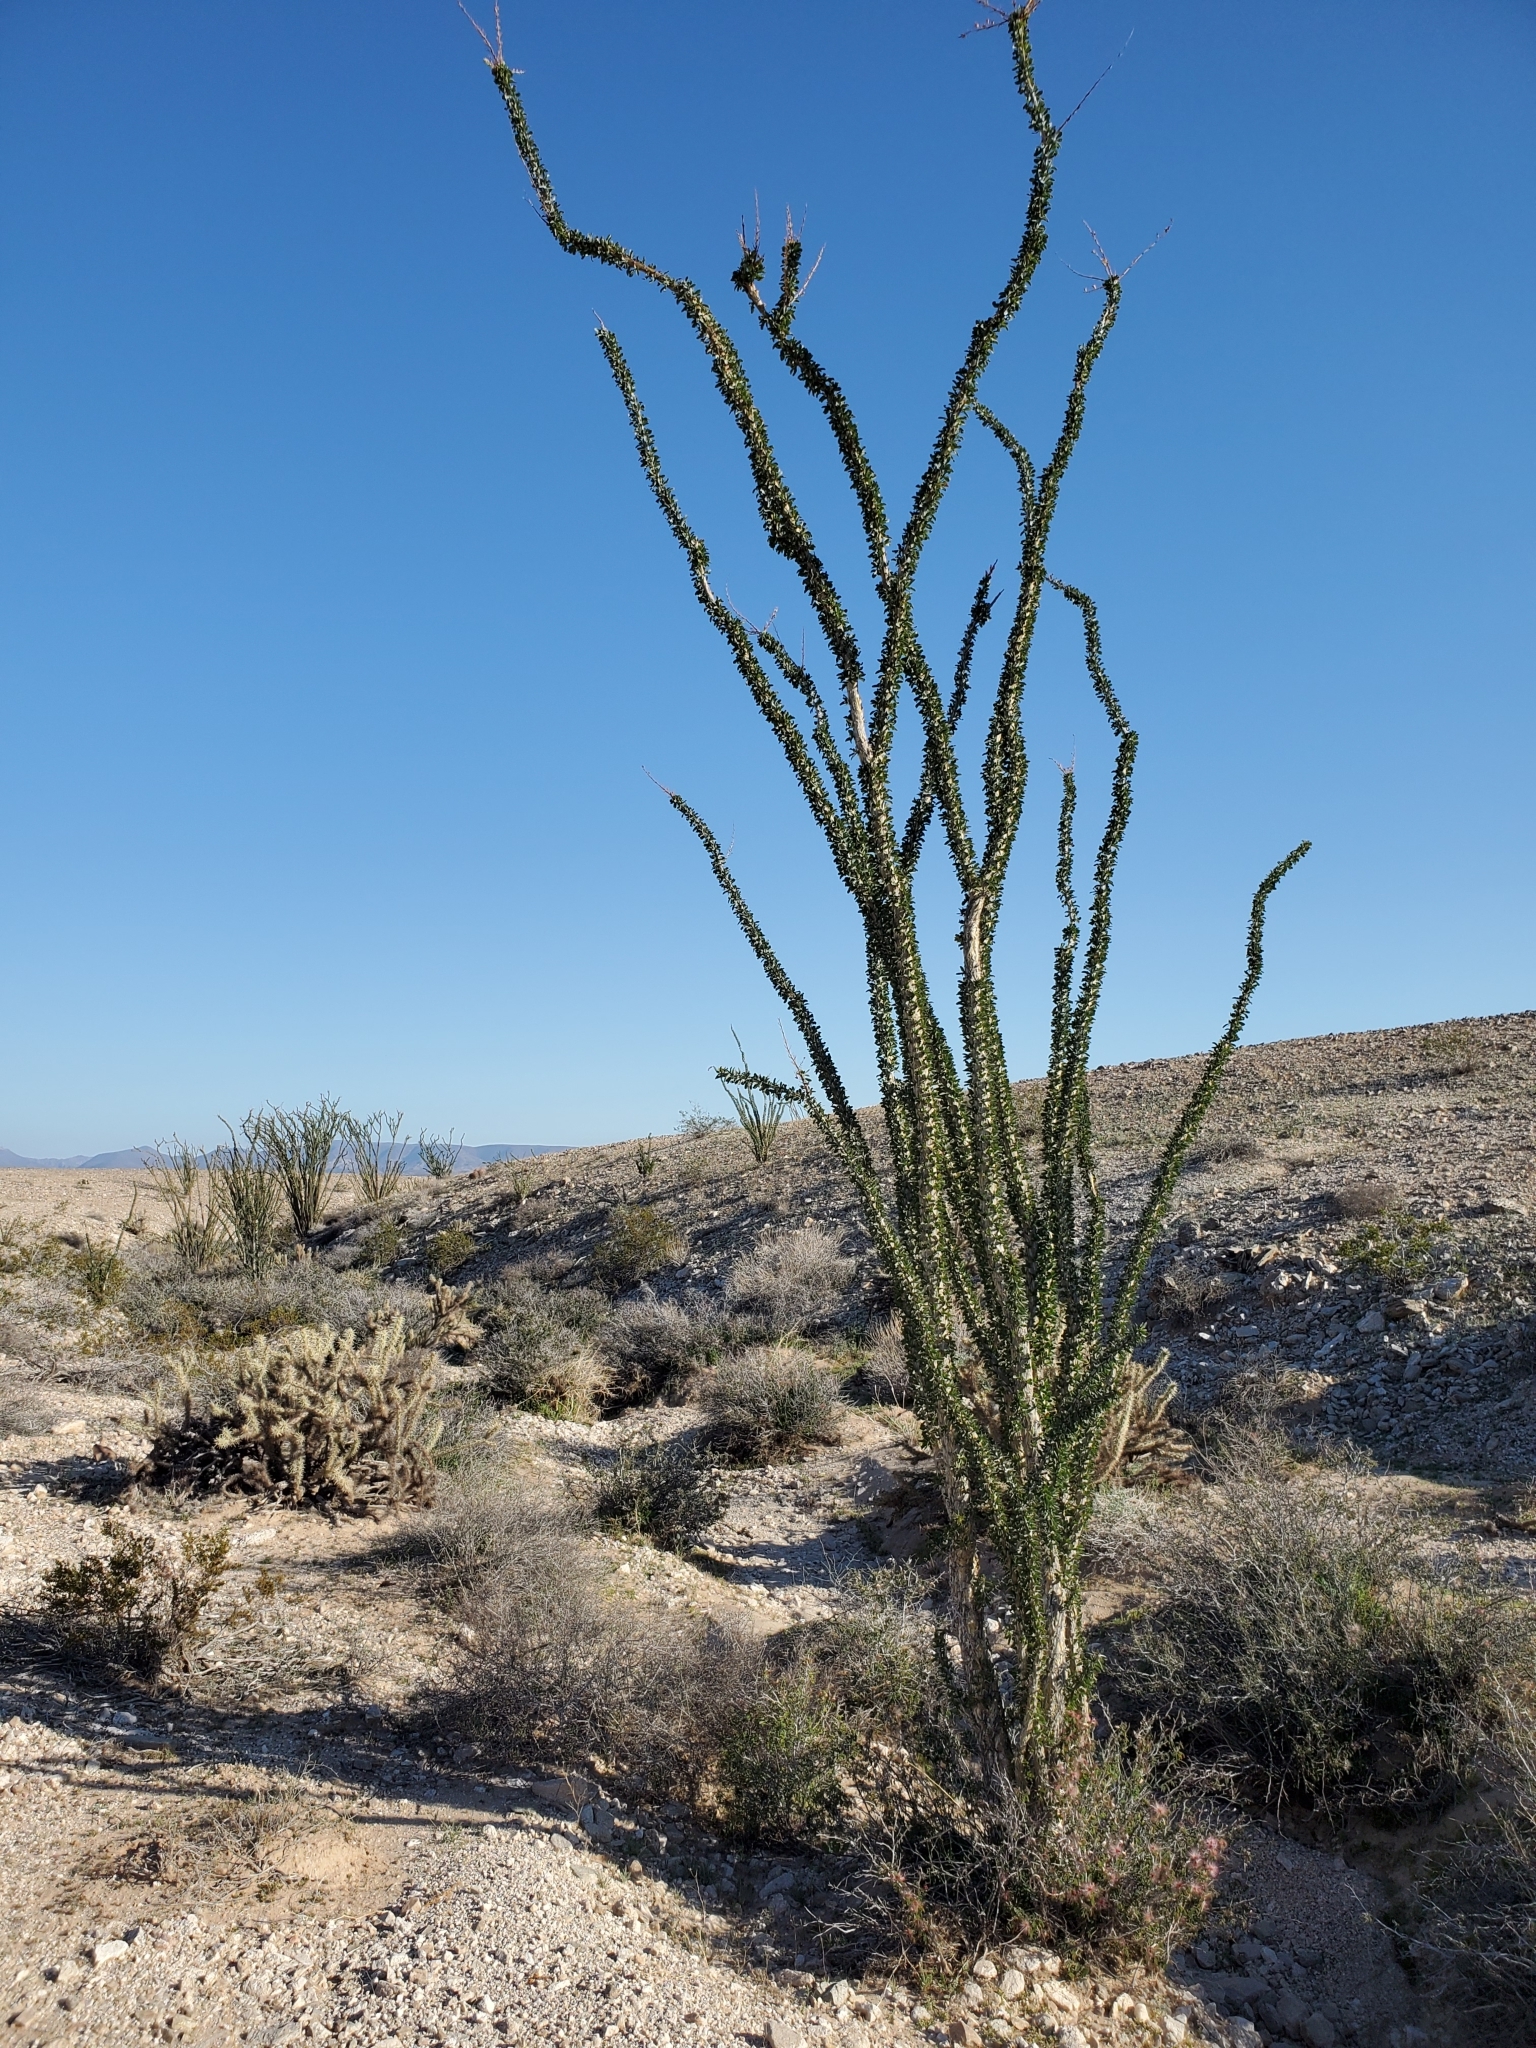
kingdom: Plantae
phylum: Tracheophyta
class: Magnoliopsida
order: Ericales
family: Fouquieriaceae
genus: Fouquieria
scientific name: Fouquieria splendens
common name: Vine-cactus
